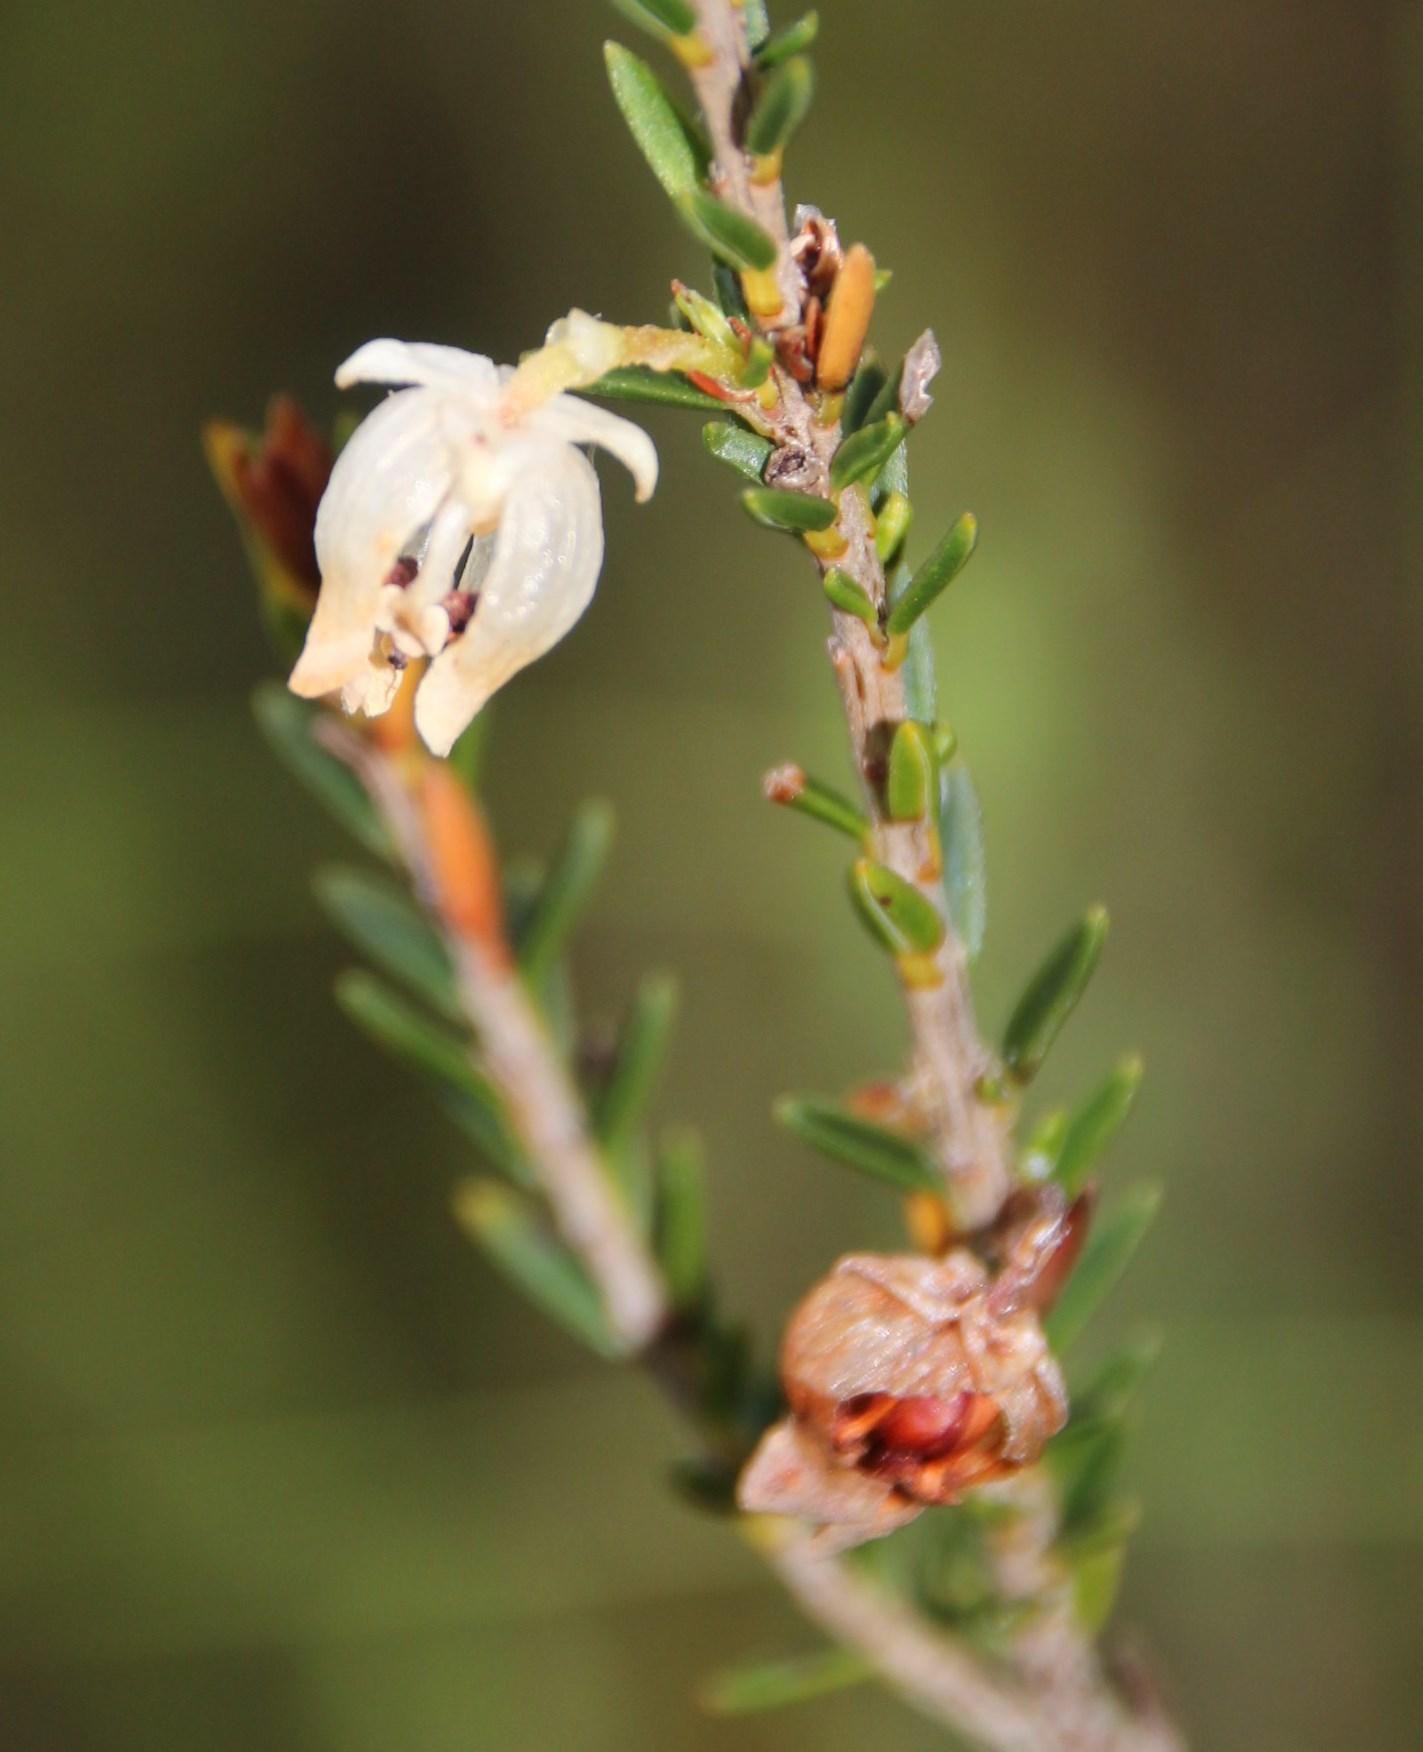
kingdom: Plantae
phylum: Tracheophyta
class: Magnoliopsida
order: Ericales
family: Ericaceae
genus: Erica
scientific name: Erica physodes
